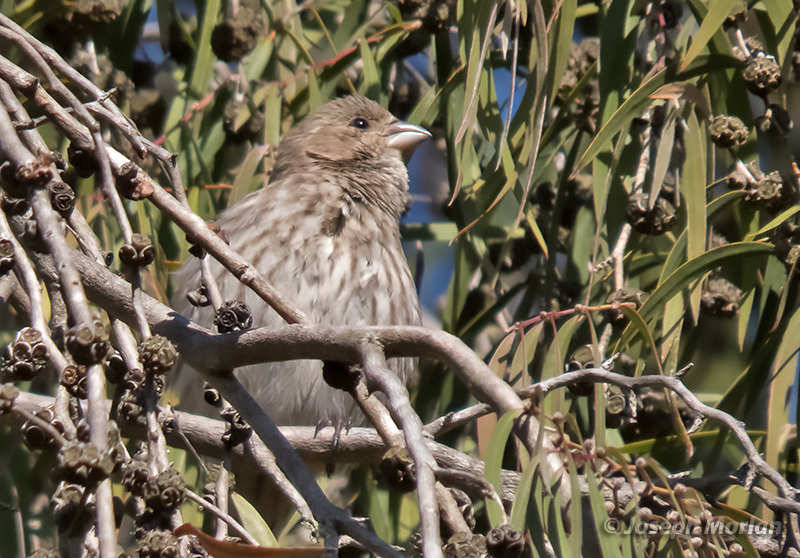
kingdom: Animalia
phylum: Chordata
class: Aves
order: Passeriformes
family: Fringillidae
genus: Haemorhous
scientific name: Haemorhous mexicanus
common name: House finch
